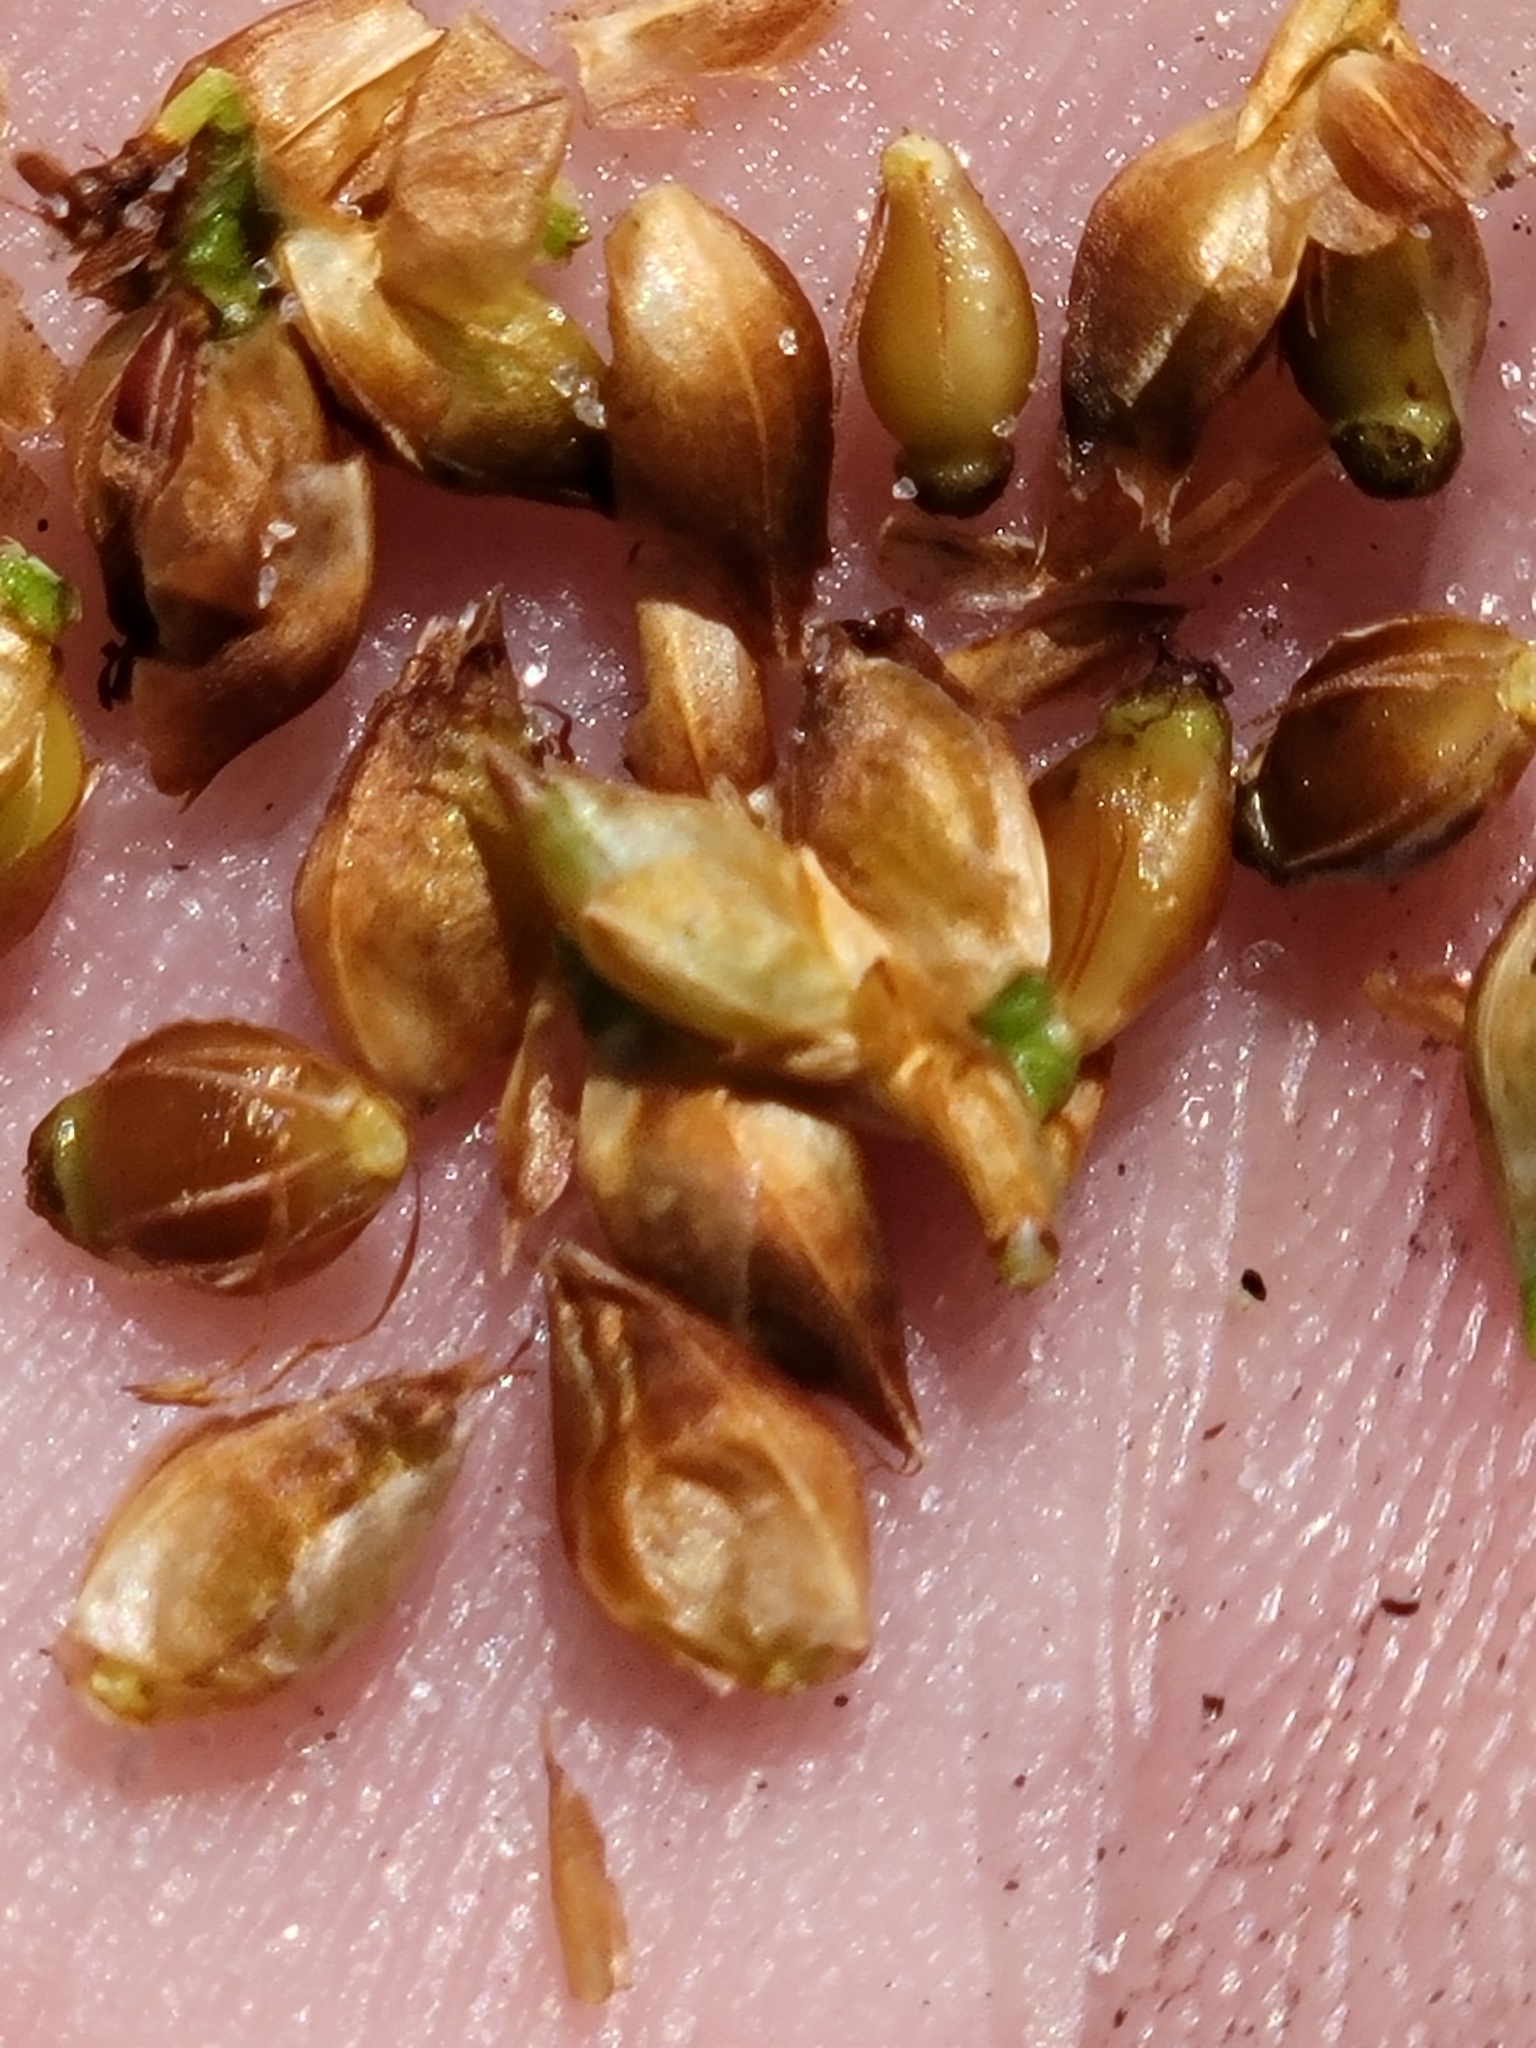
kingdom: Plantae
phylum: Tracheophyta
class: Liliopsida
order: Poales
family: Cyperaceae
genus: Rhynchospora
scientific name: Rhynchospora grayi
